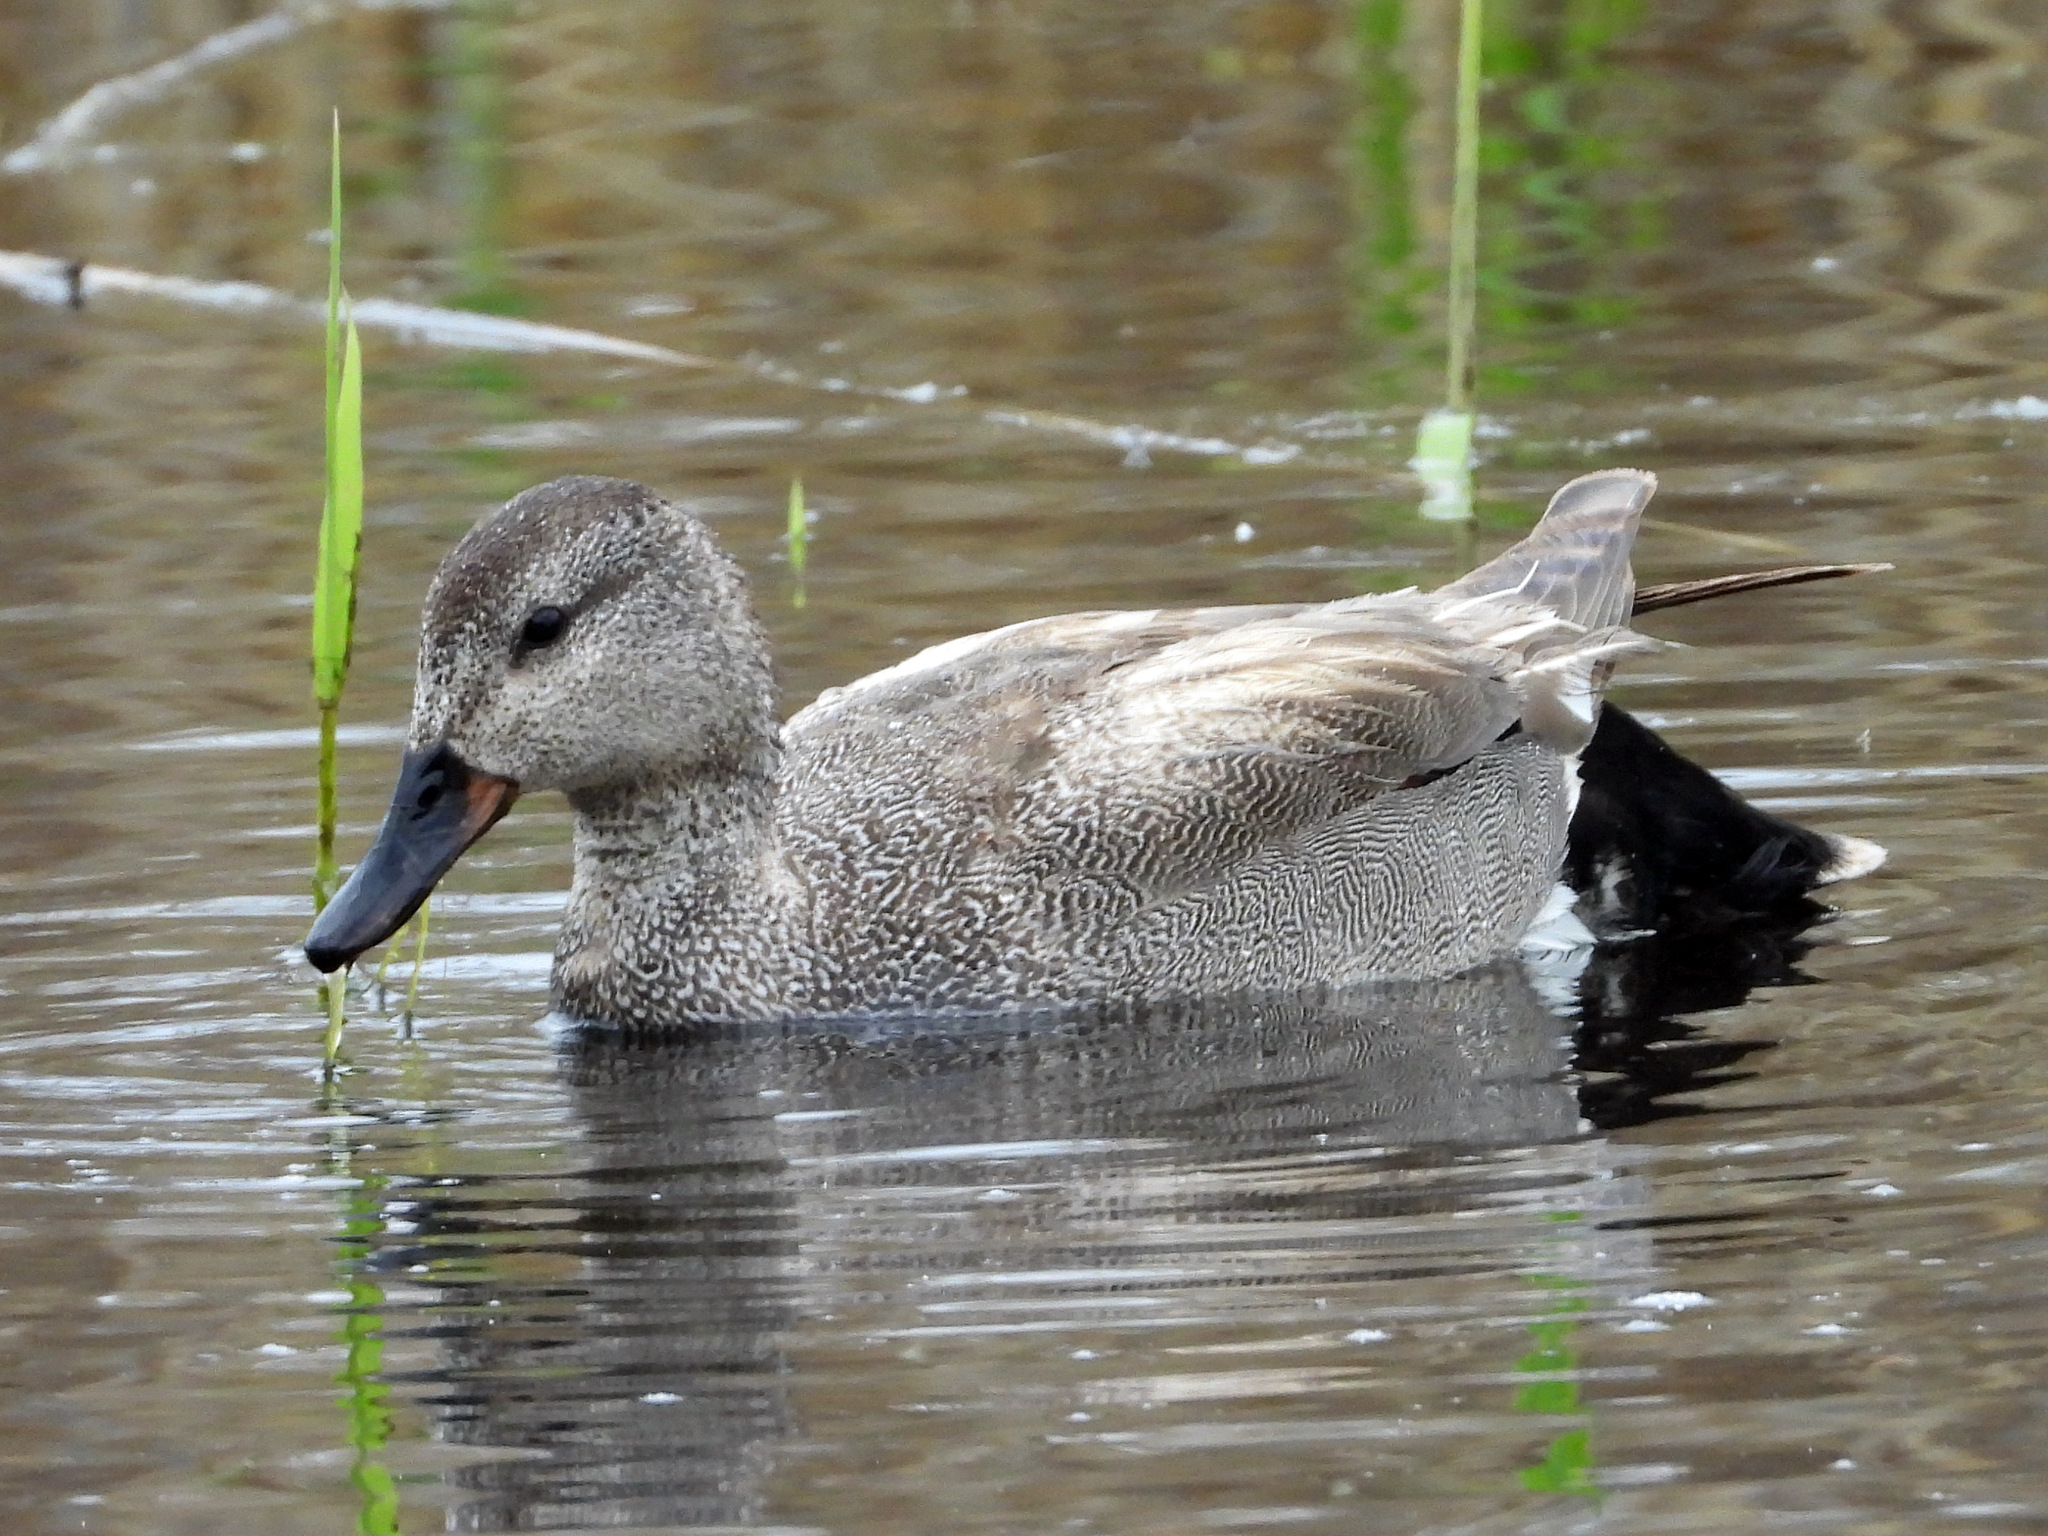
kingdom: Animalia
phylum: Chordata
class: Aves
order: Anseriformes
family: Anatidae
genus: Mareca
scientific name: Mareca strepera
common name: Gadwall
